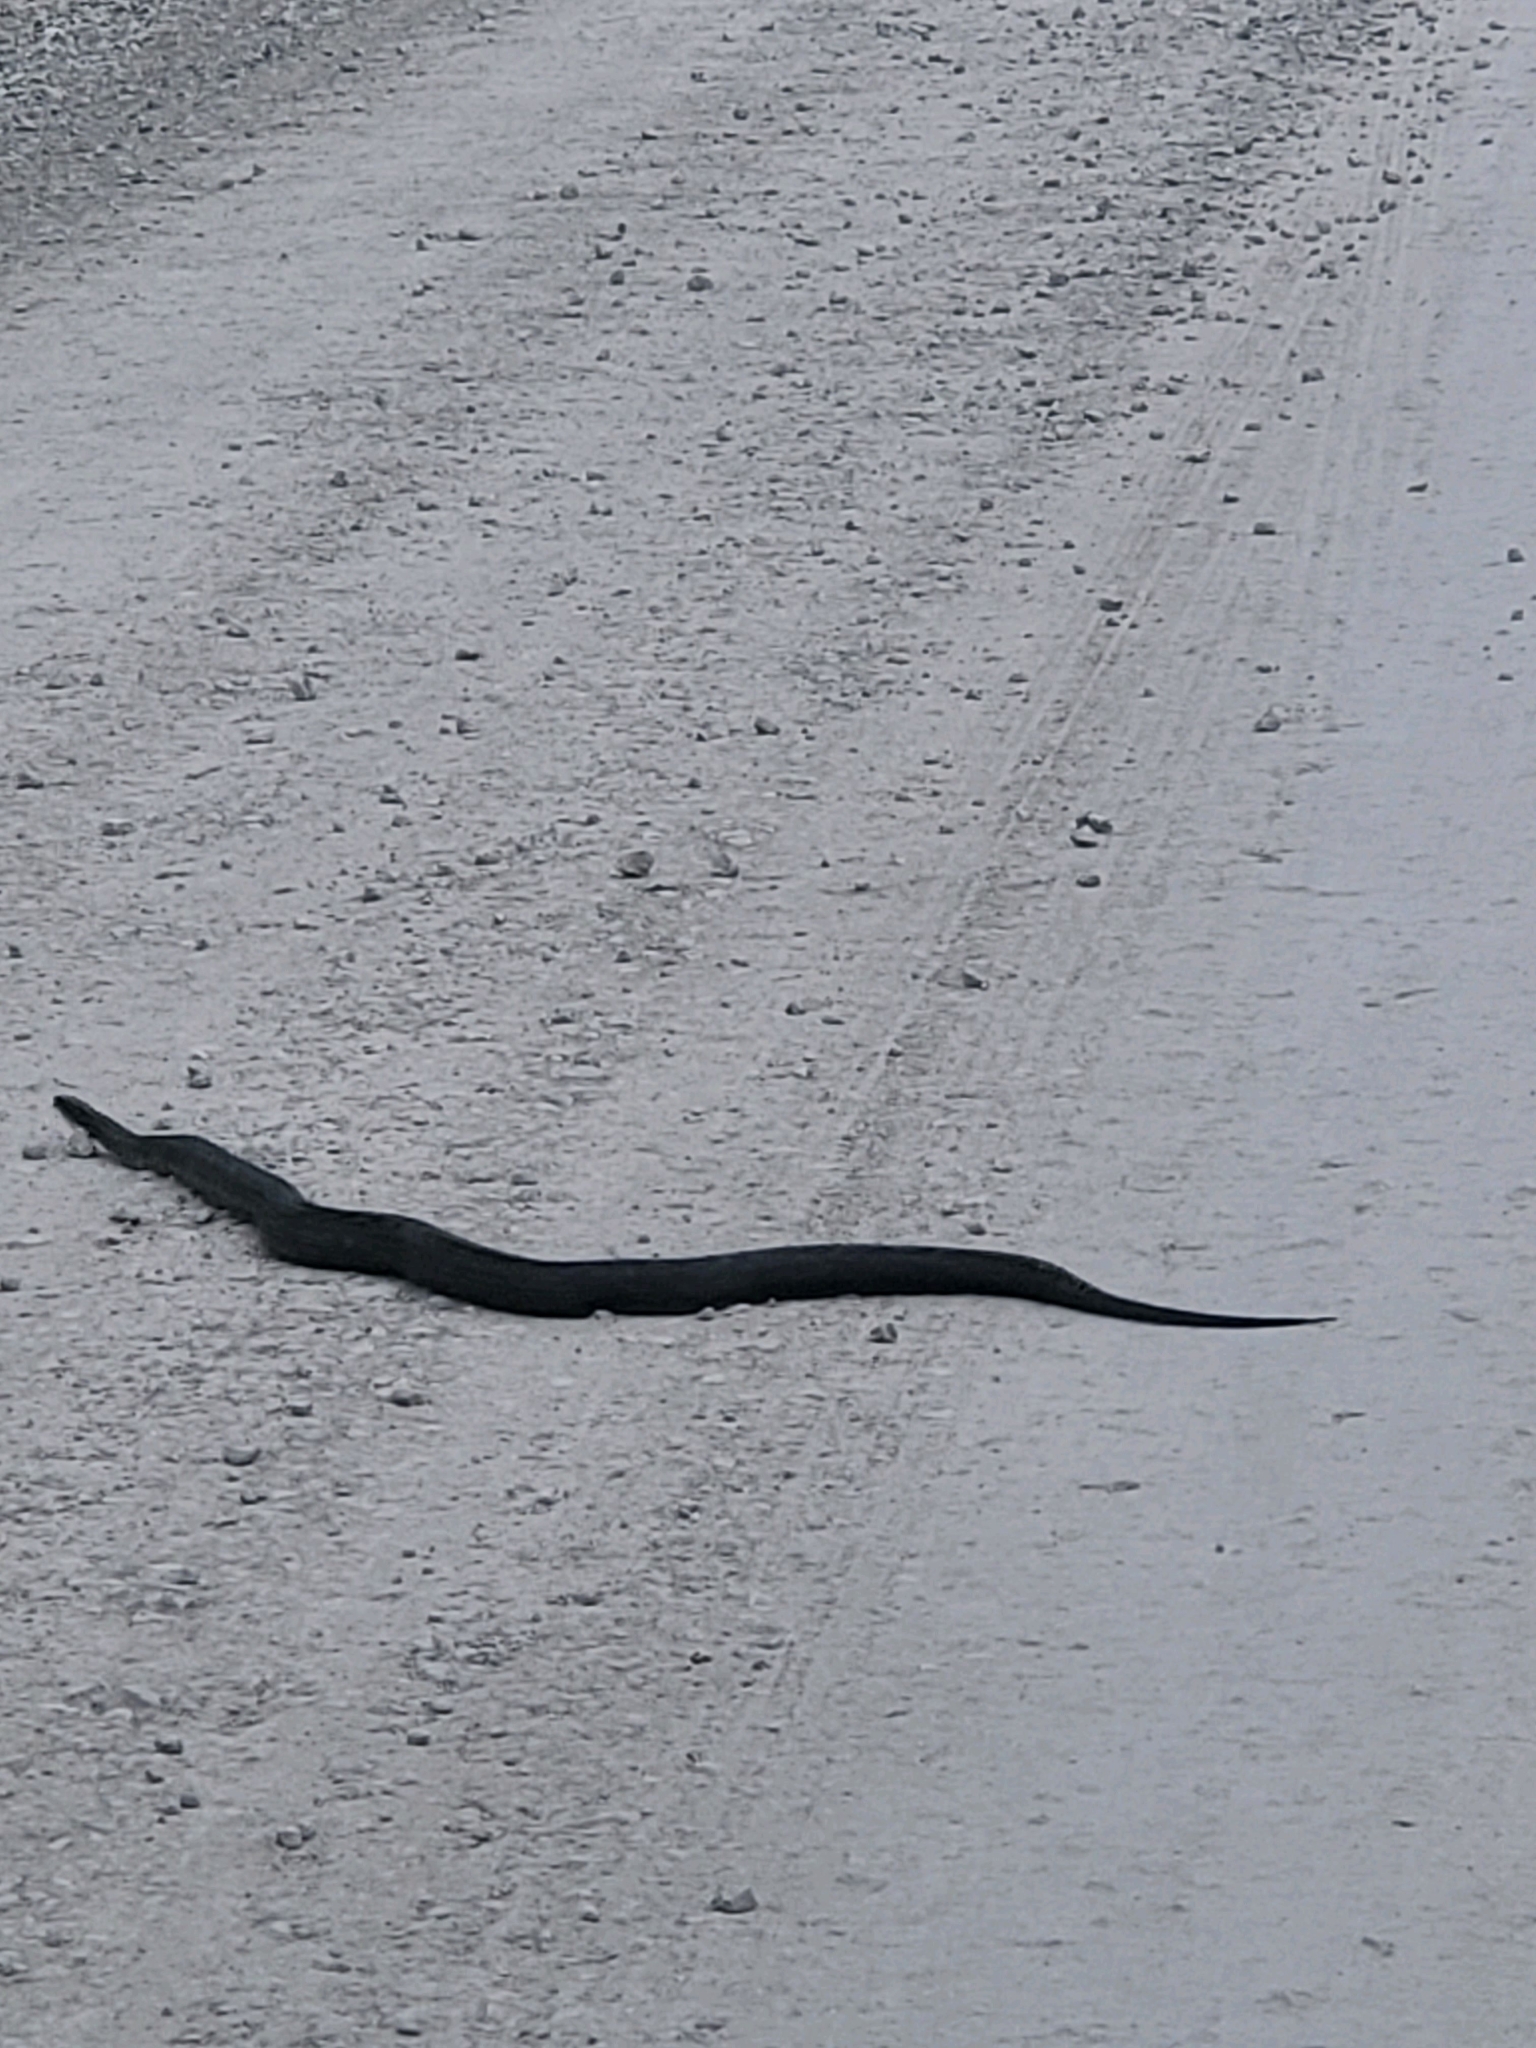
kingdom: Animalia
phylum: Chordata
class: Squamata
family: Colubridae
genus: Pantherophis
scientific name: Pantherophis obsoletus
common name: Black rat snake
